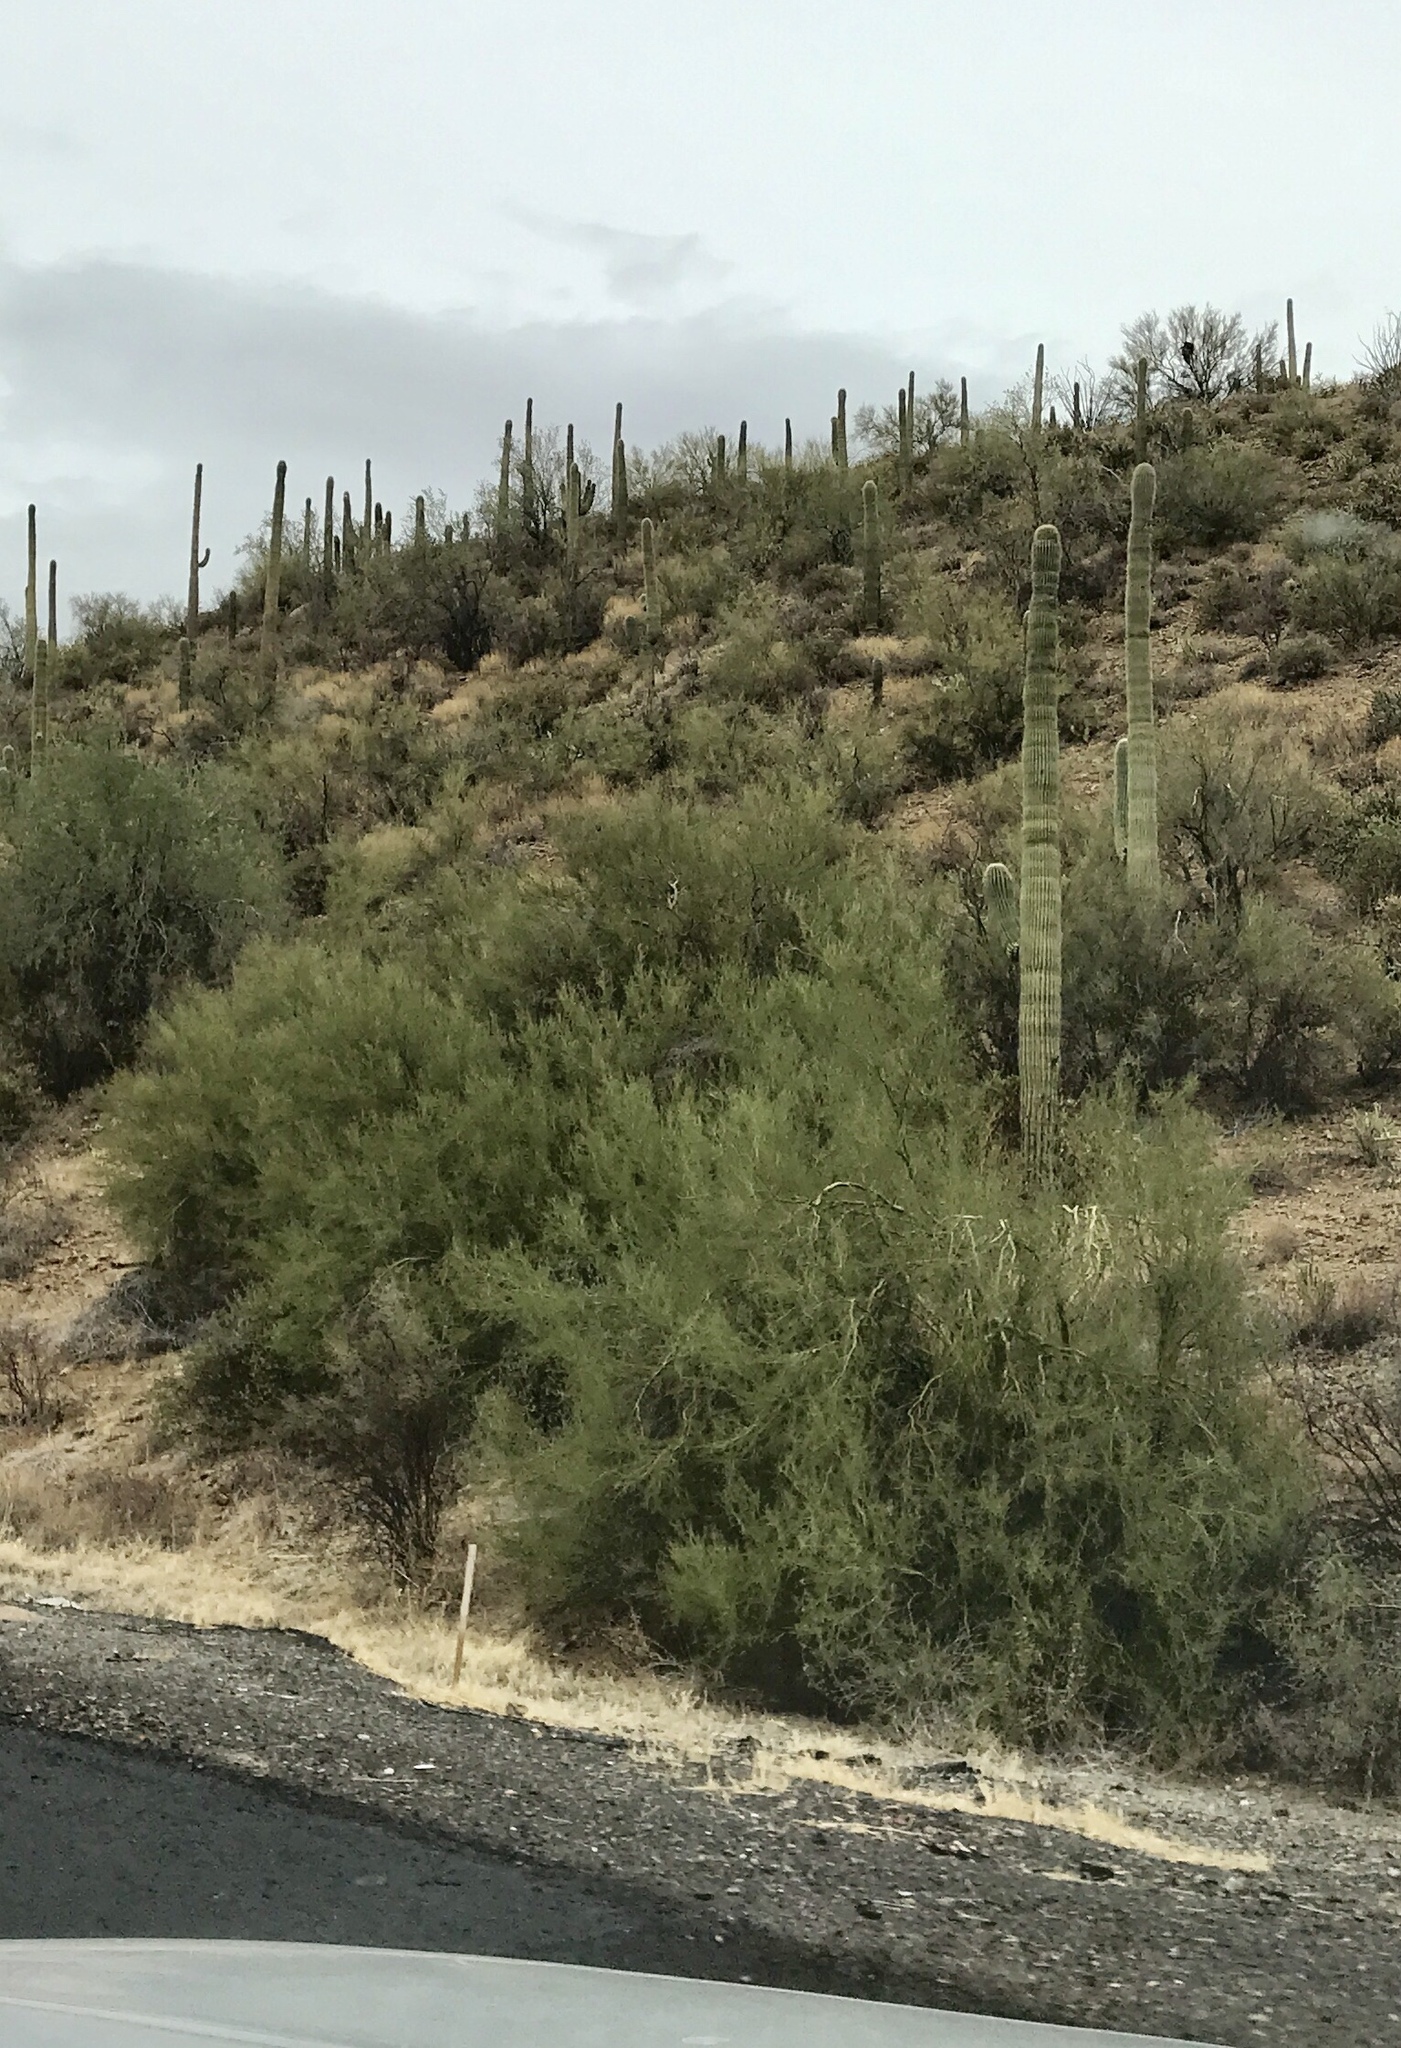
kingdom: Plantae
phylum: Tracheophyta
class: Magnoliopsida
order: Fabales
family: Fabaceae
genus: Parkinsonia
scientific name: Parkinsonia microphylla
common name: Yellow paloverde
